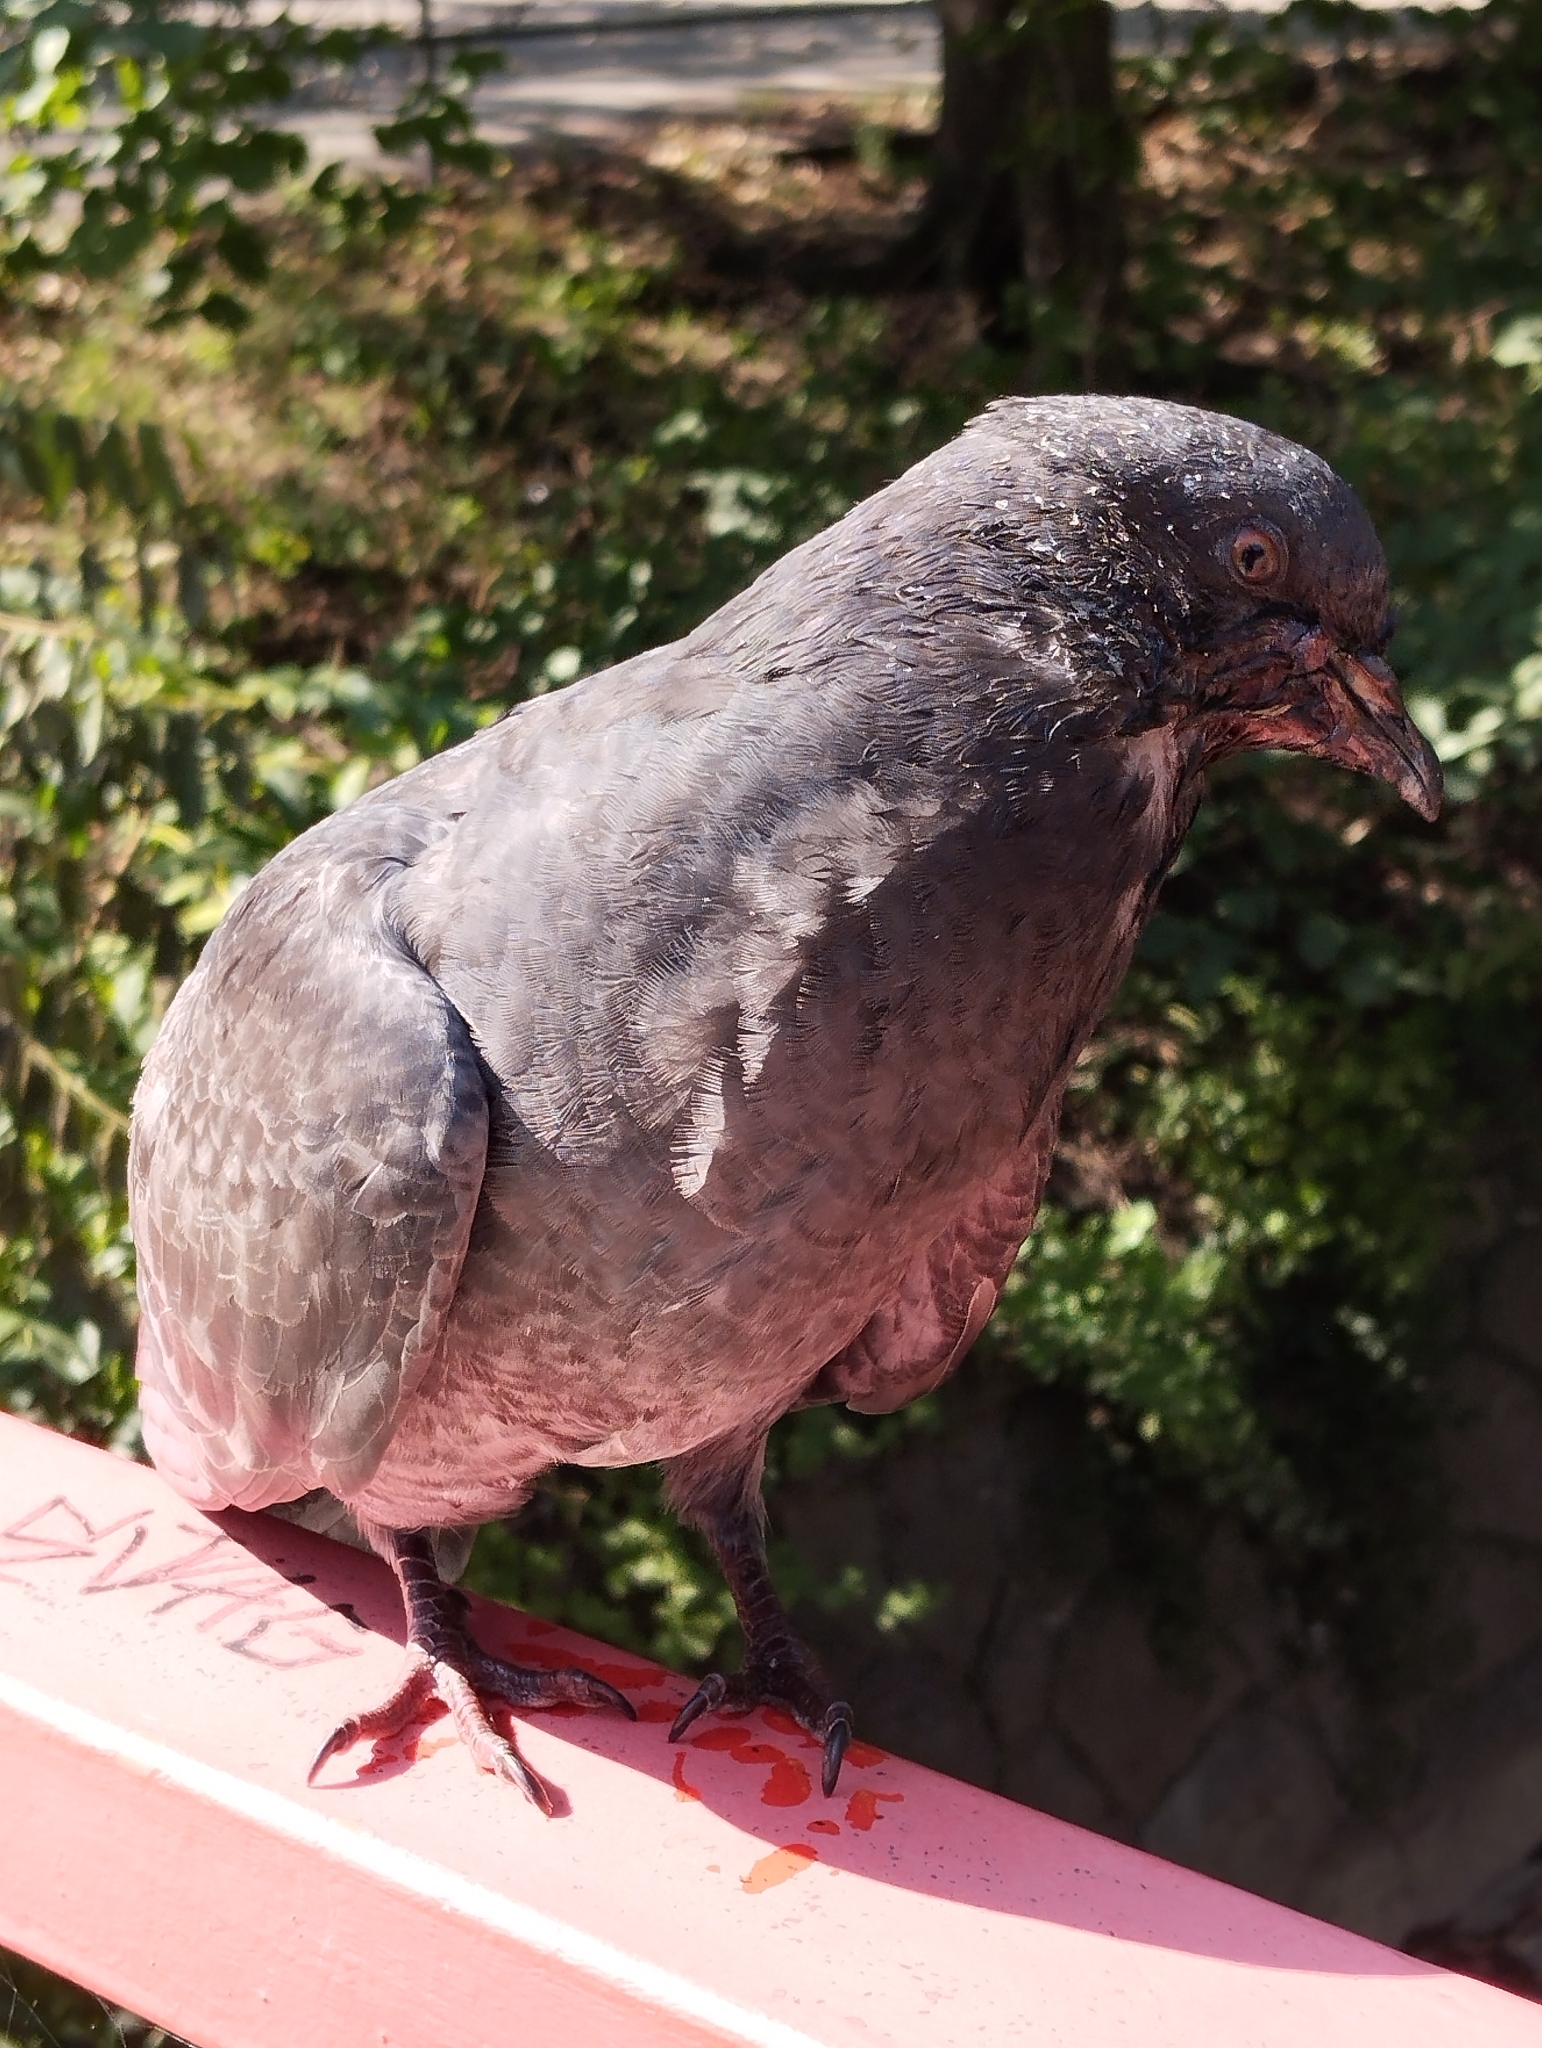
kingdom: Animalia
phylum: Chordata
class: Aves
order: Columbiformes
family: Columbidae
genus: Columba
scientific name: Columba livia
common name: Rock pigeon
